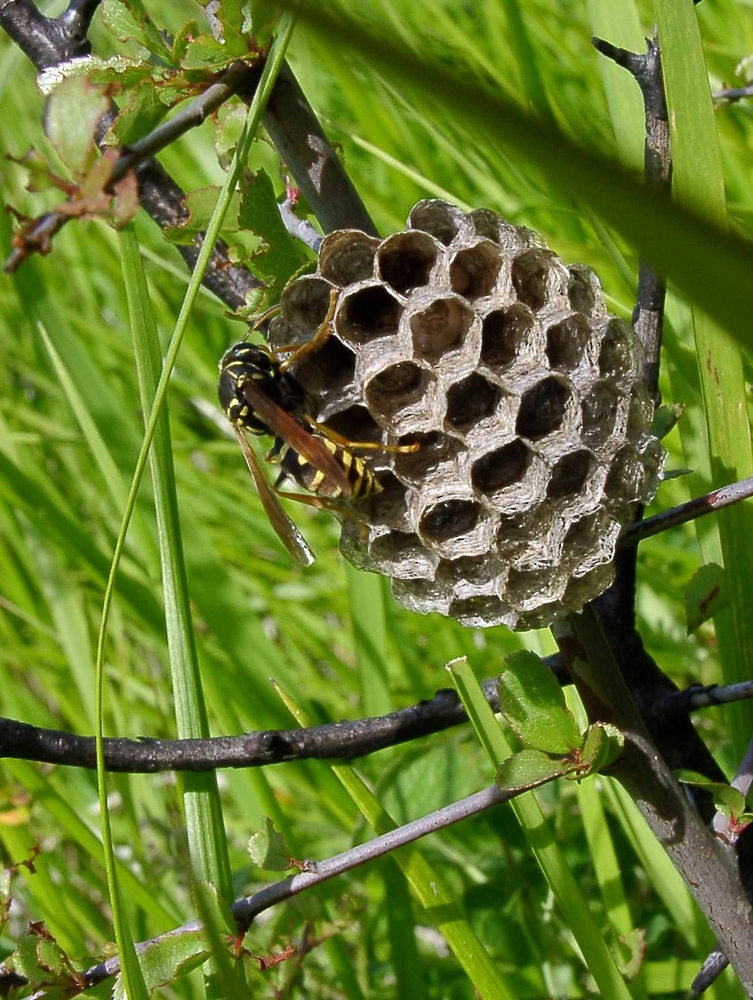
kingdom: Animalia
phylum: Arthropoda
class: Insecta
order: Hymenoptera
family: Eumenidae
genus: Polistes
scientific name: Polistes nimpha
